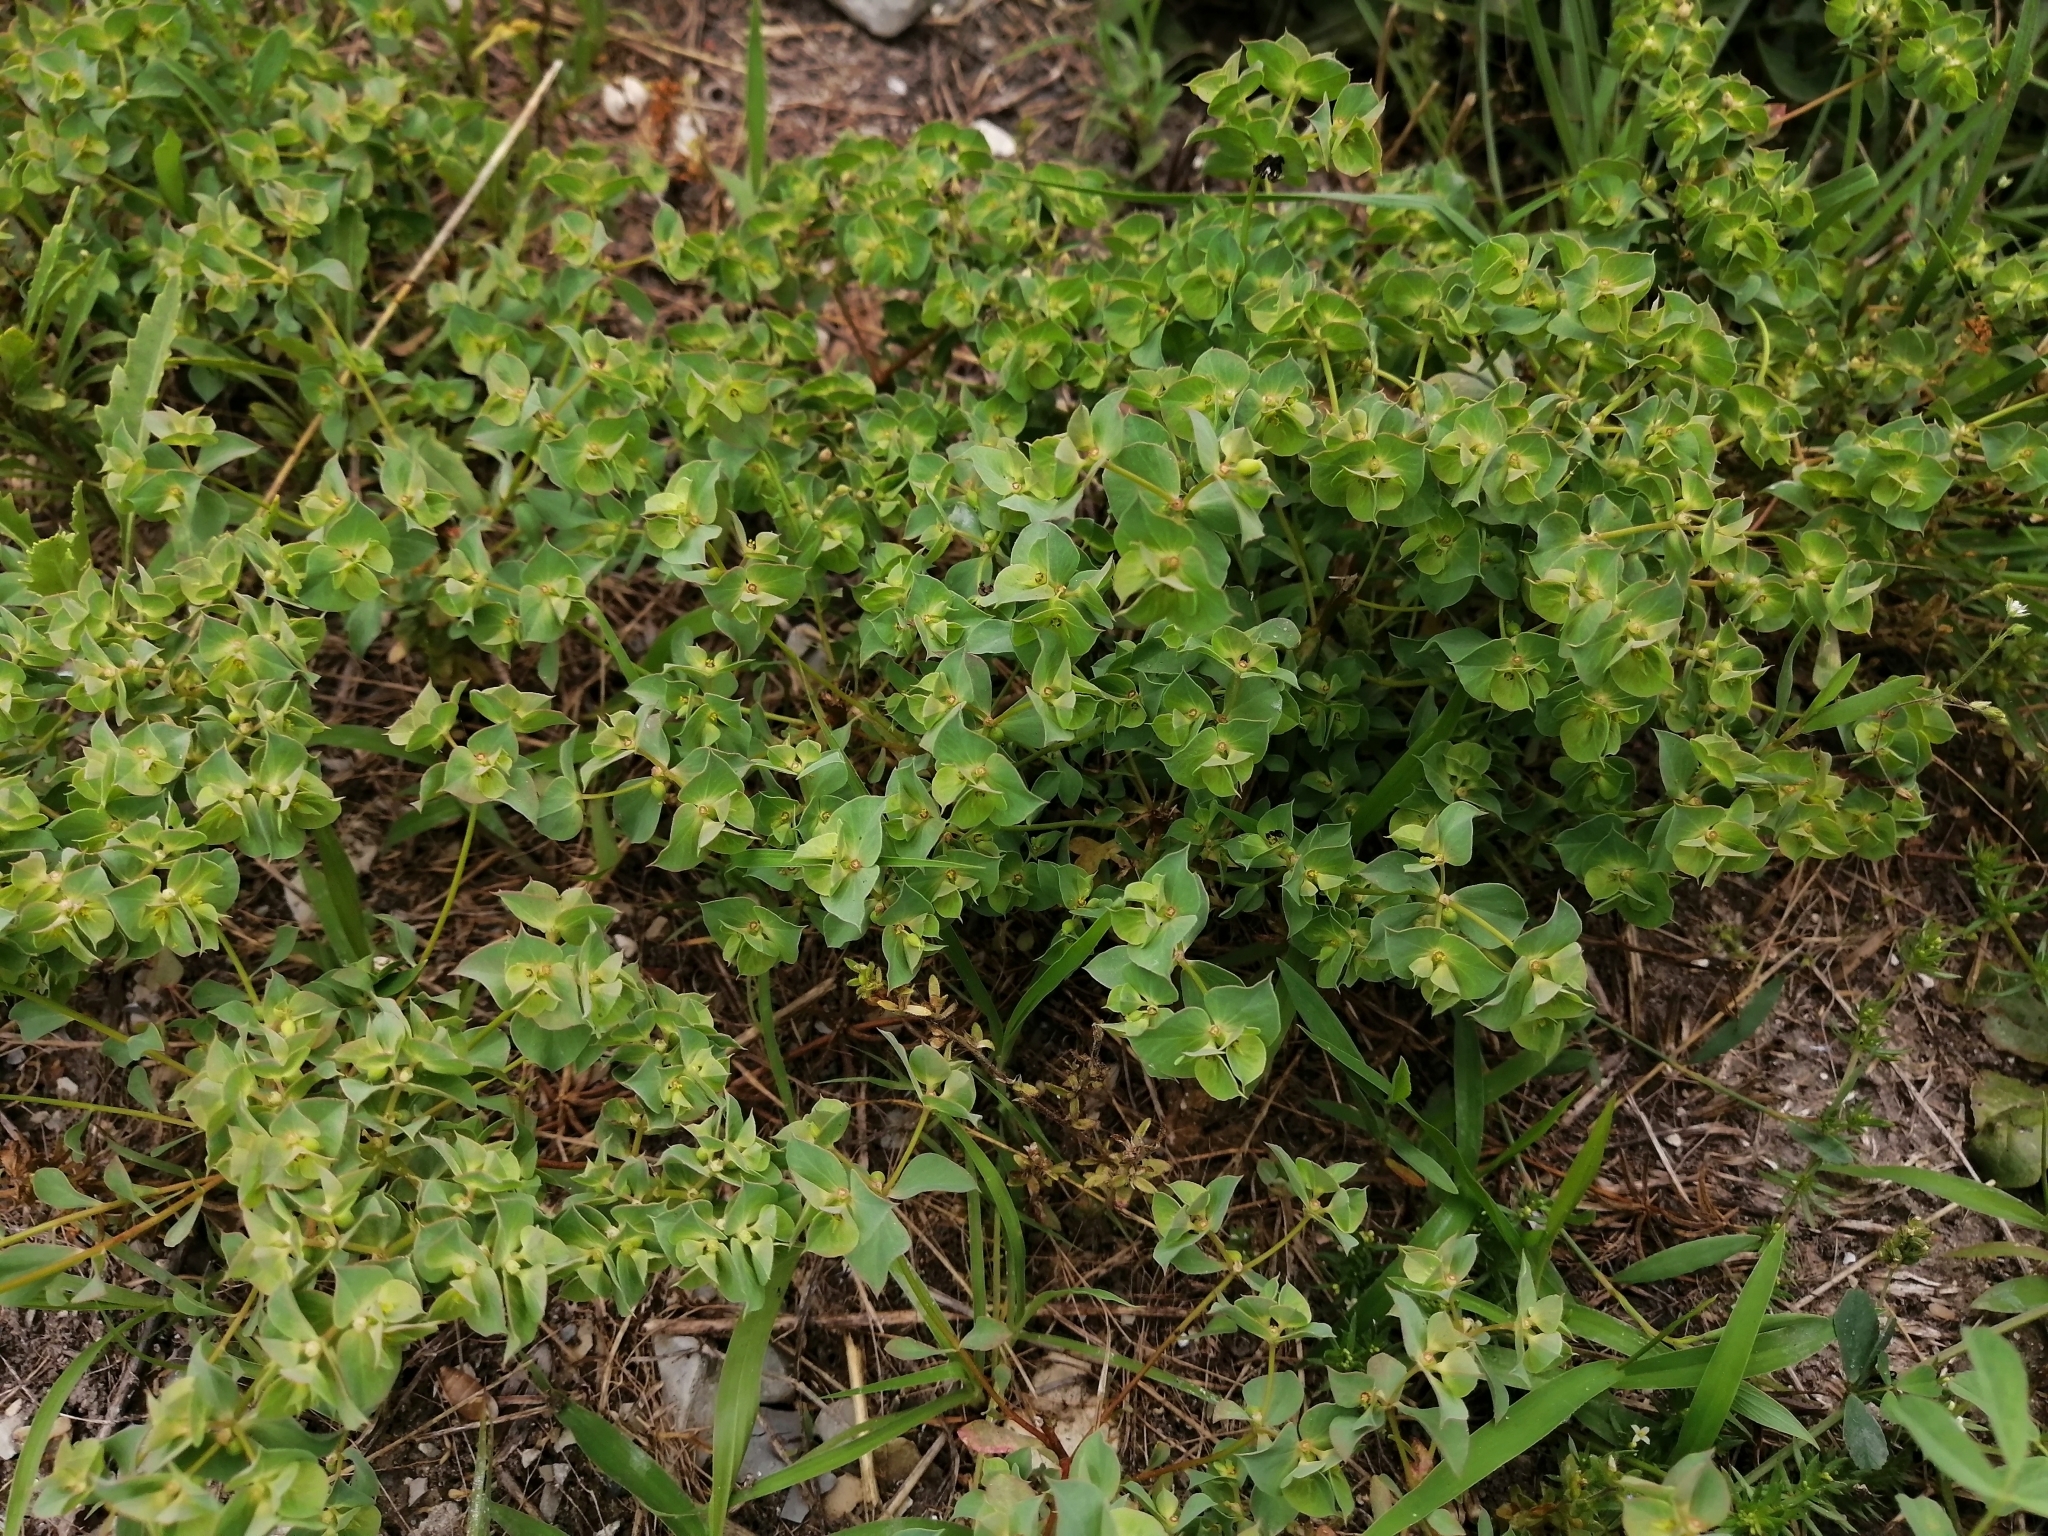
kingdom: Plantae
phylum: Tracheophyta
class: Magnoliopsida
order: Malpighiales
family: Euphorbiaceae
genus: Euphorbia
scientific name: Euphorbia falcata
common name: Sickle spurge
